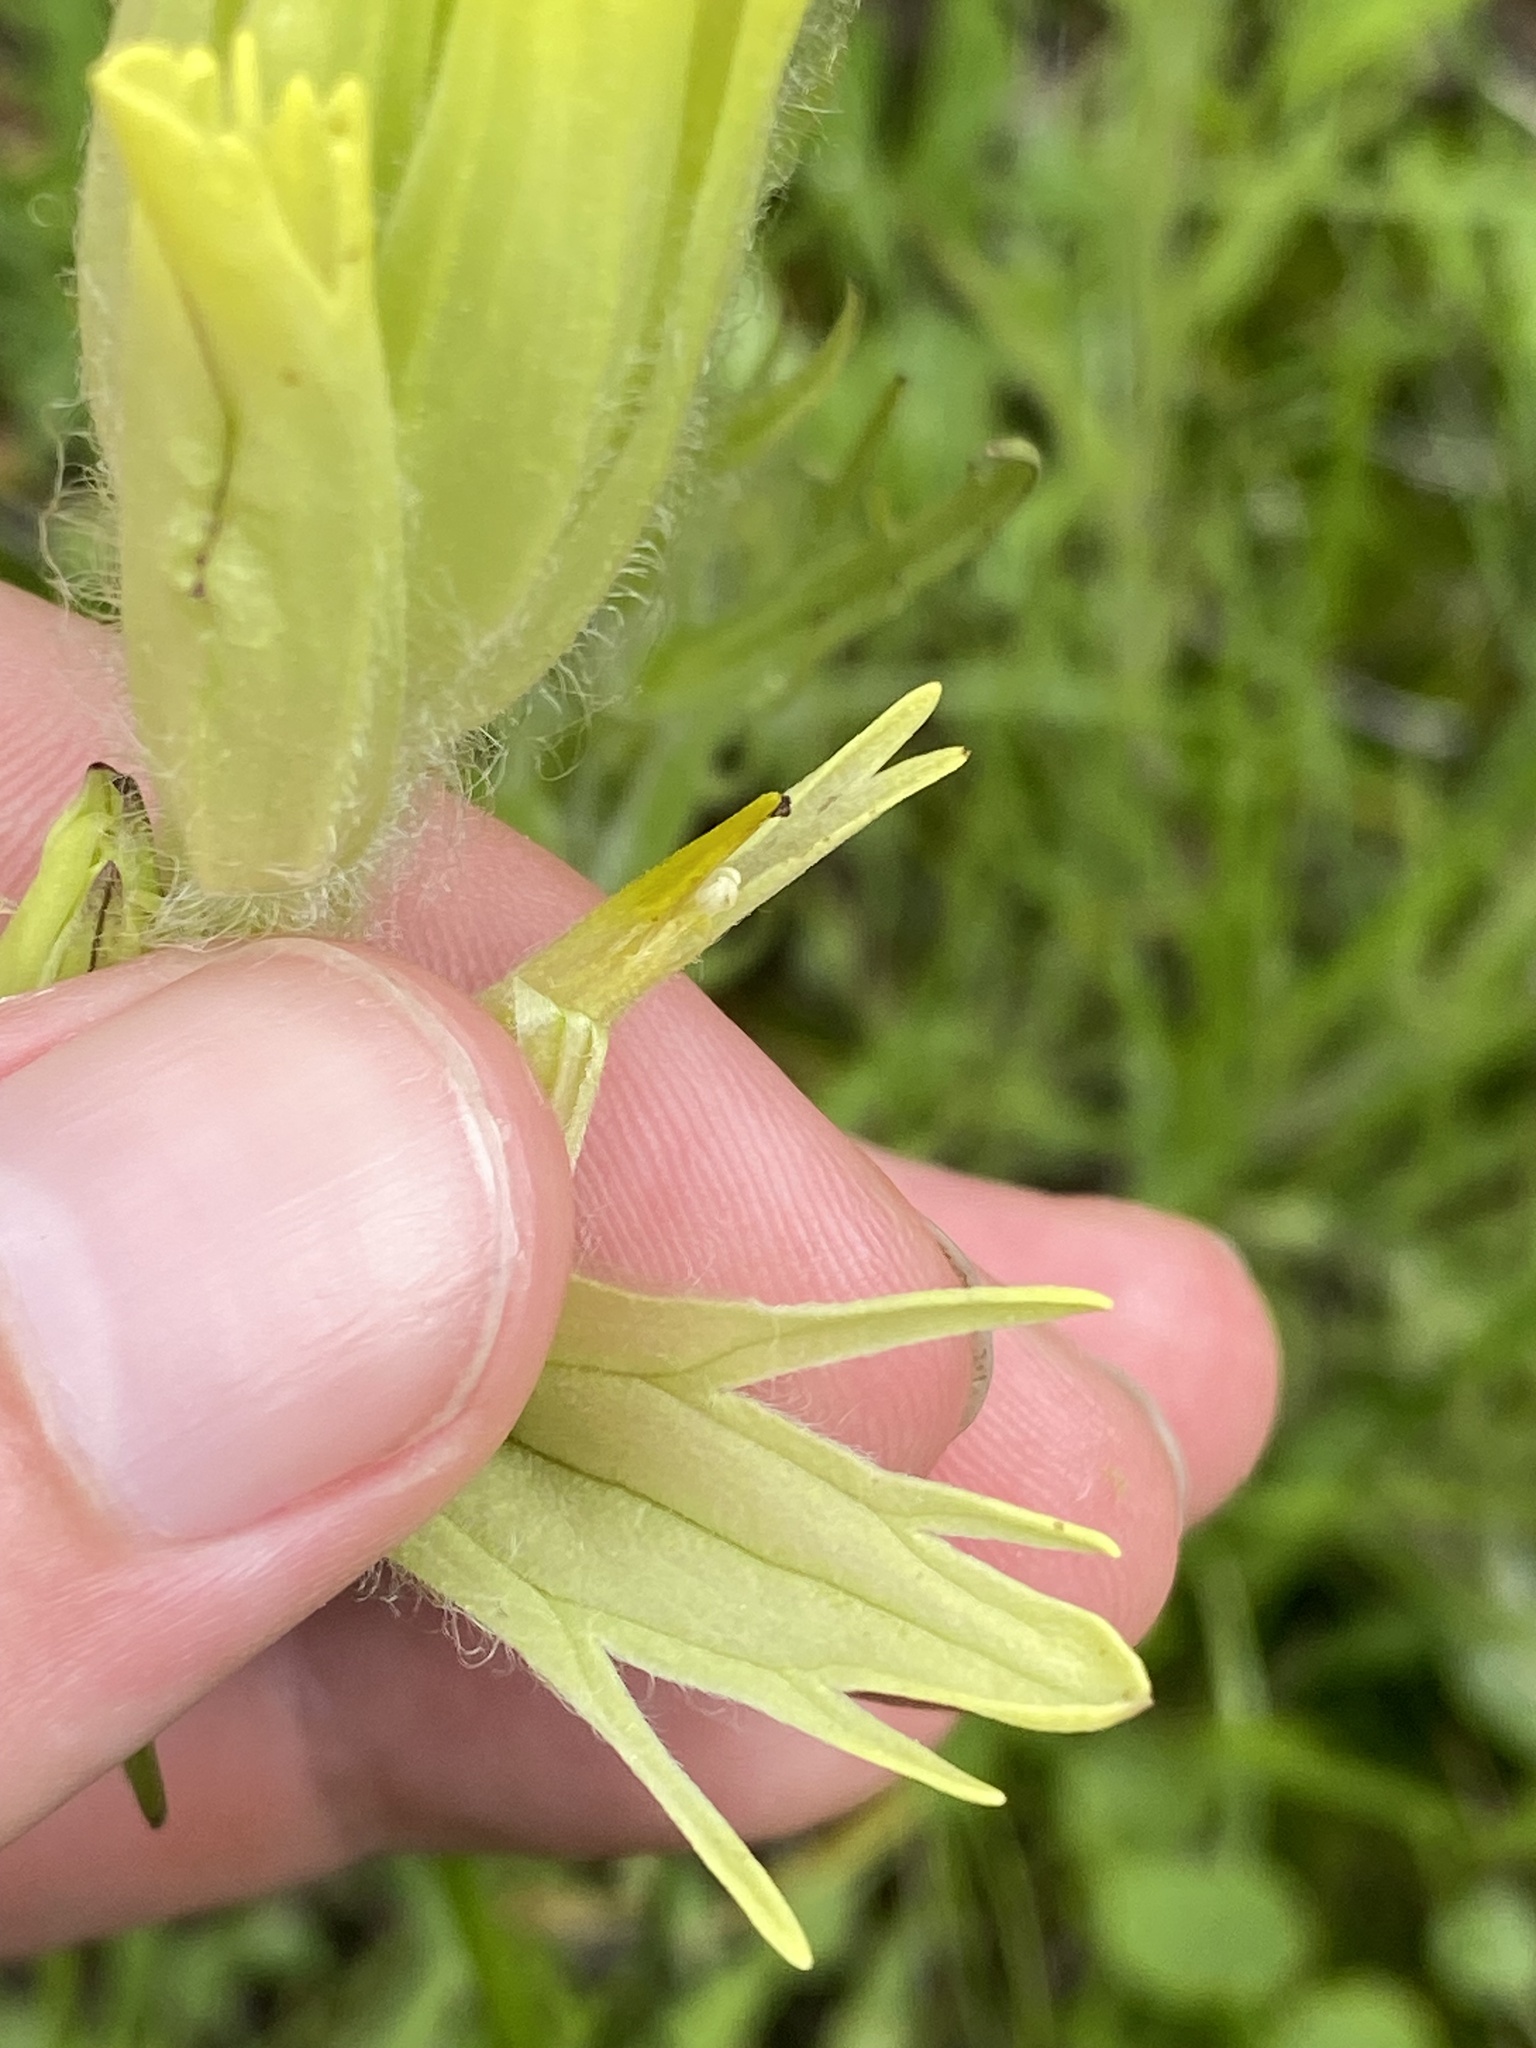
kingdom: Plantae
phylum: Tracheophyta
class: Magnoliopsida
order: Lamiales
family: Orobanchaceae
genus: Castilleja
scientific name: Castilleja cusickii
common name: Cusick's paintbrush
